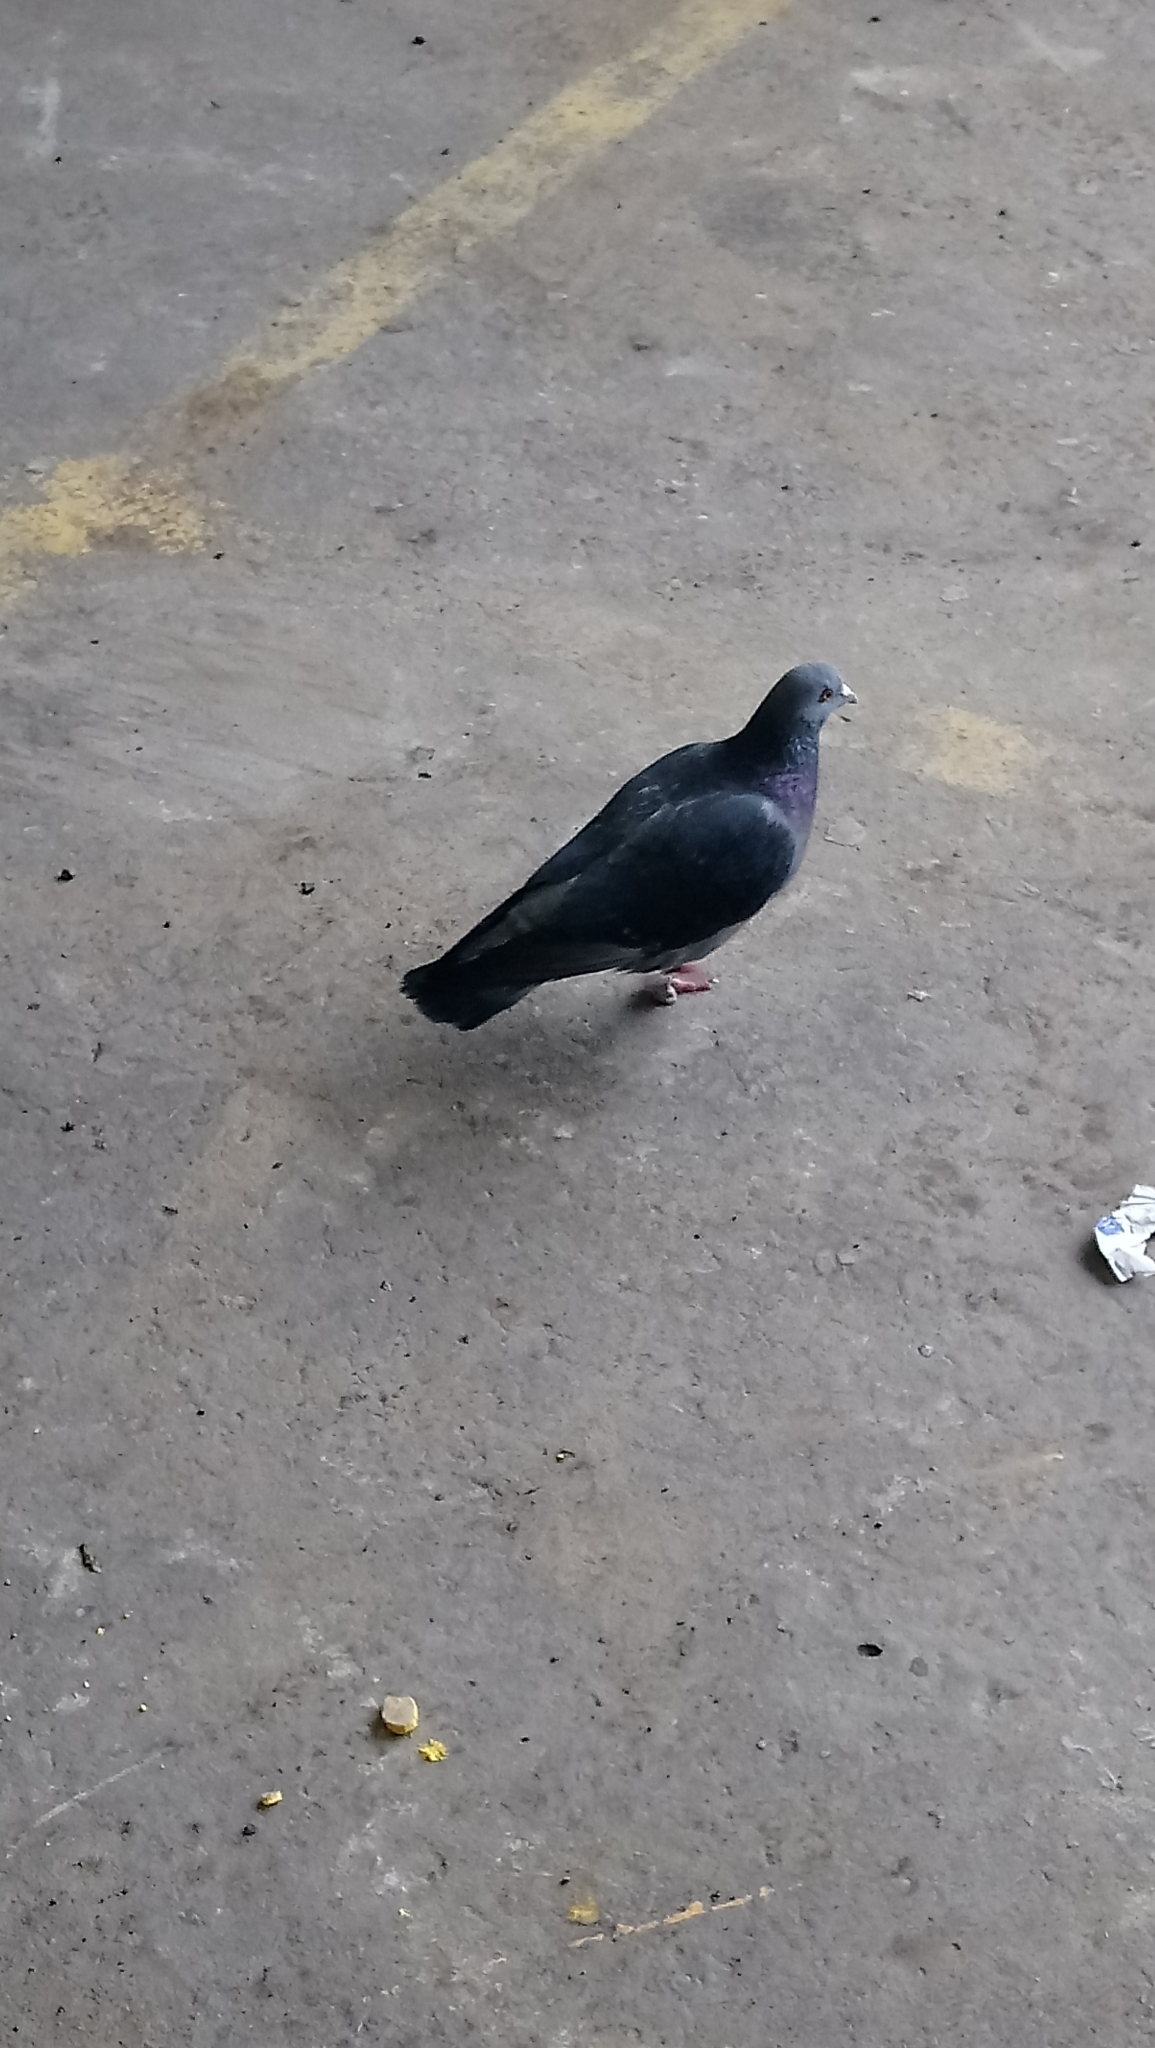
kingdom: Animalia
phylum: Chordata
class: Aves
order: Columbiformes
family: Columbidae
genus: Columba
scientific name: Columba livia
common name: Rock pigeon
